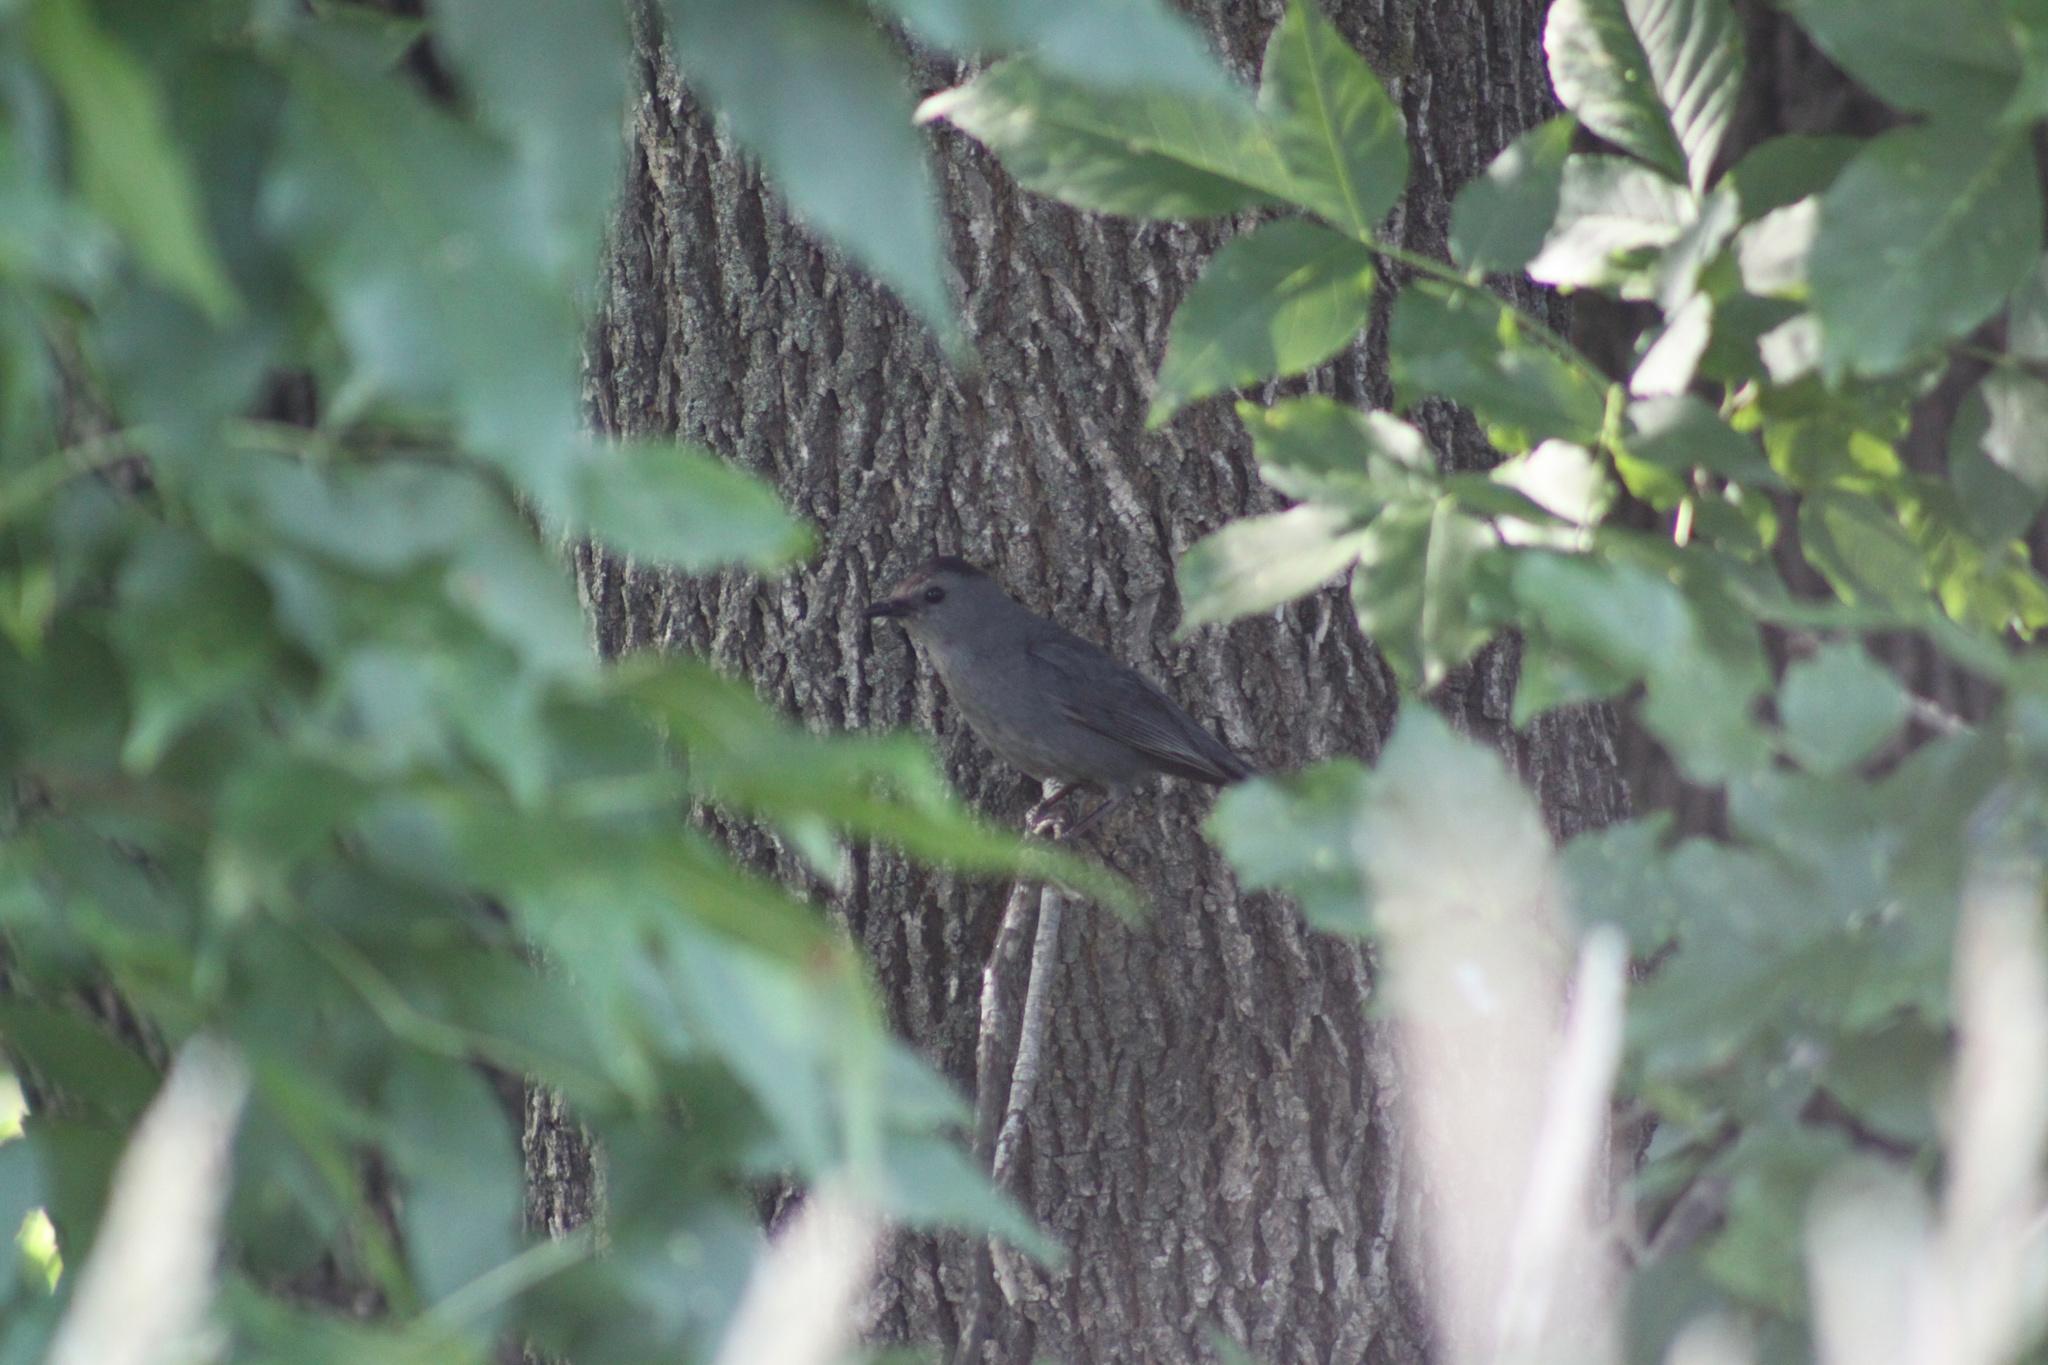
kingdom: Animalia
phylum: Chordata
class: Aves
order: Passeriformes
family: Mimidae
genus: Dumetella
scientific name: Dumetella carolinensis
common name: Gray catbird
